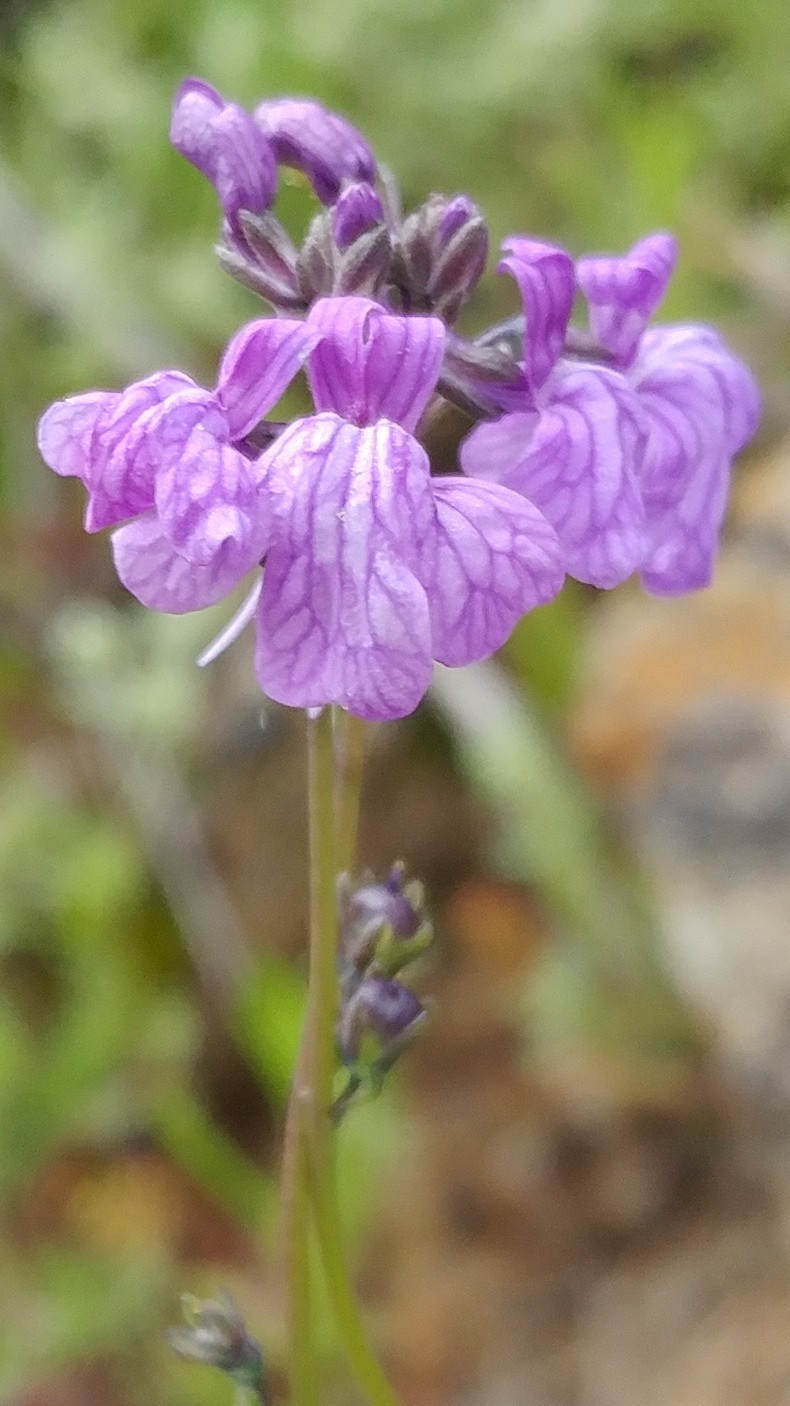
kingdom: Plantae
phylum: Tracheophyta
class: Magnoliopsida
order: Lamiales
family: Plantaginaceae
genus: Nuttallanthus
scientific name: Nuttallanthus texanus
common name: Texas toadflax
